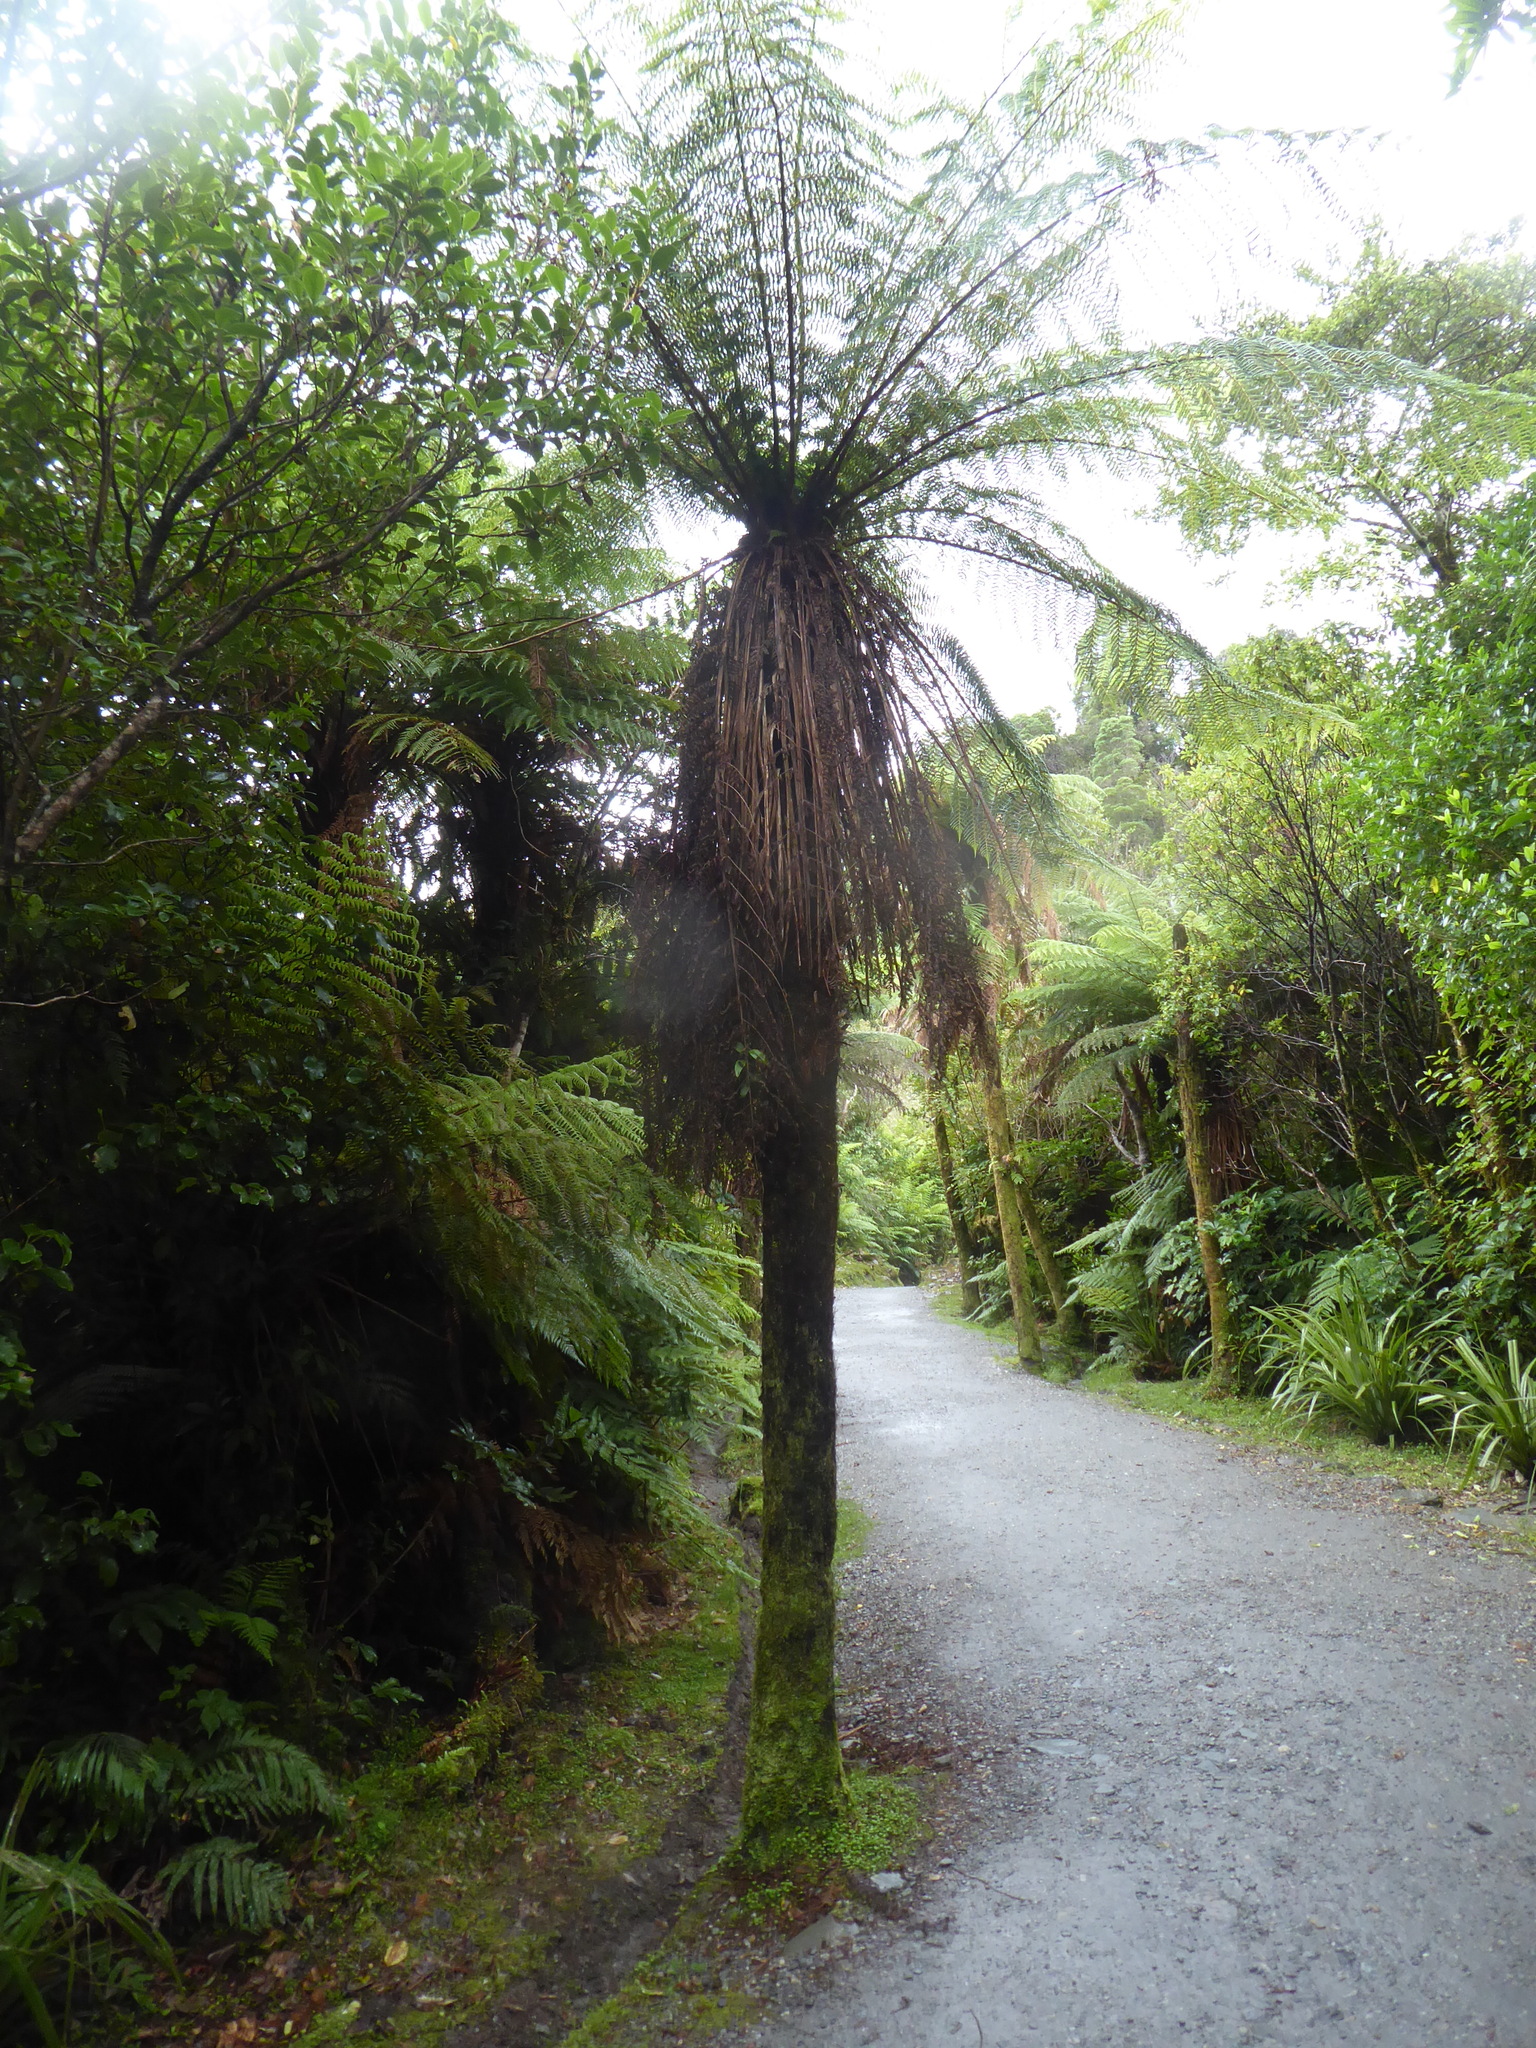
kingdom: Plantae
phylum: Tracheophyta
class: Polypodiopsida
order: Cyatheales
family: Cyatheaceae
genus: Alsophila
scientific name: Alsophila smithii
